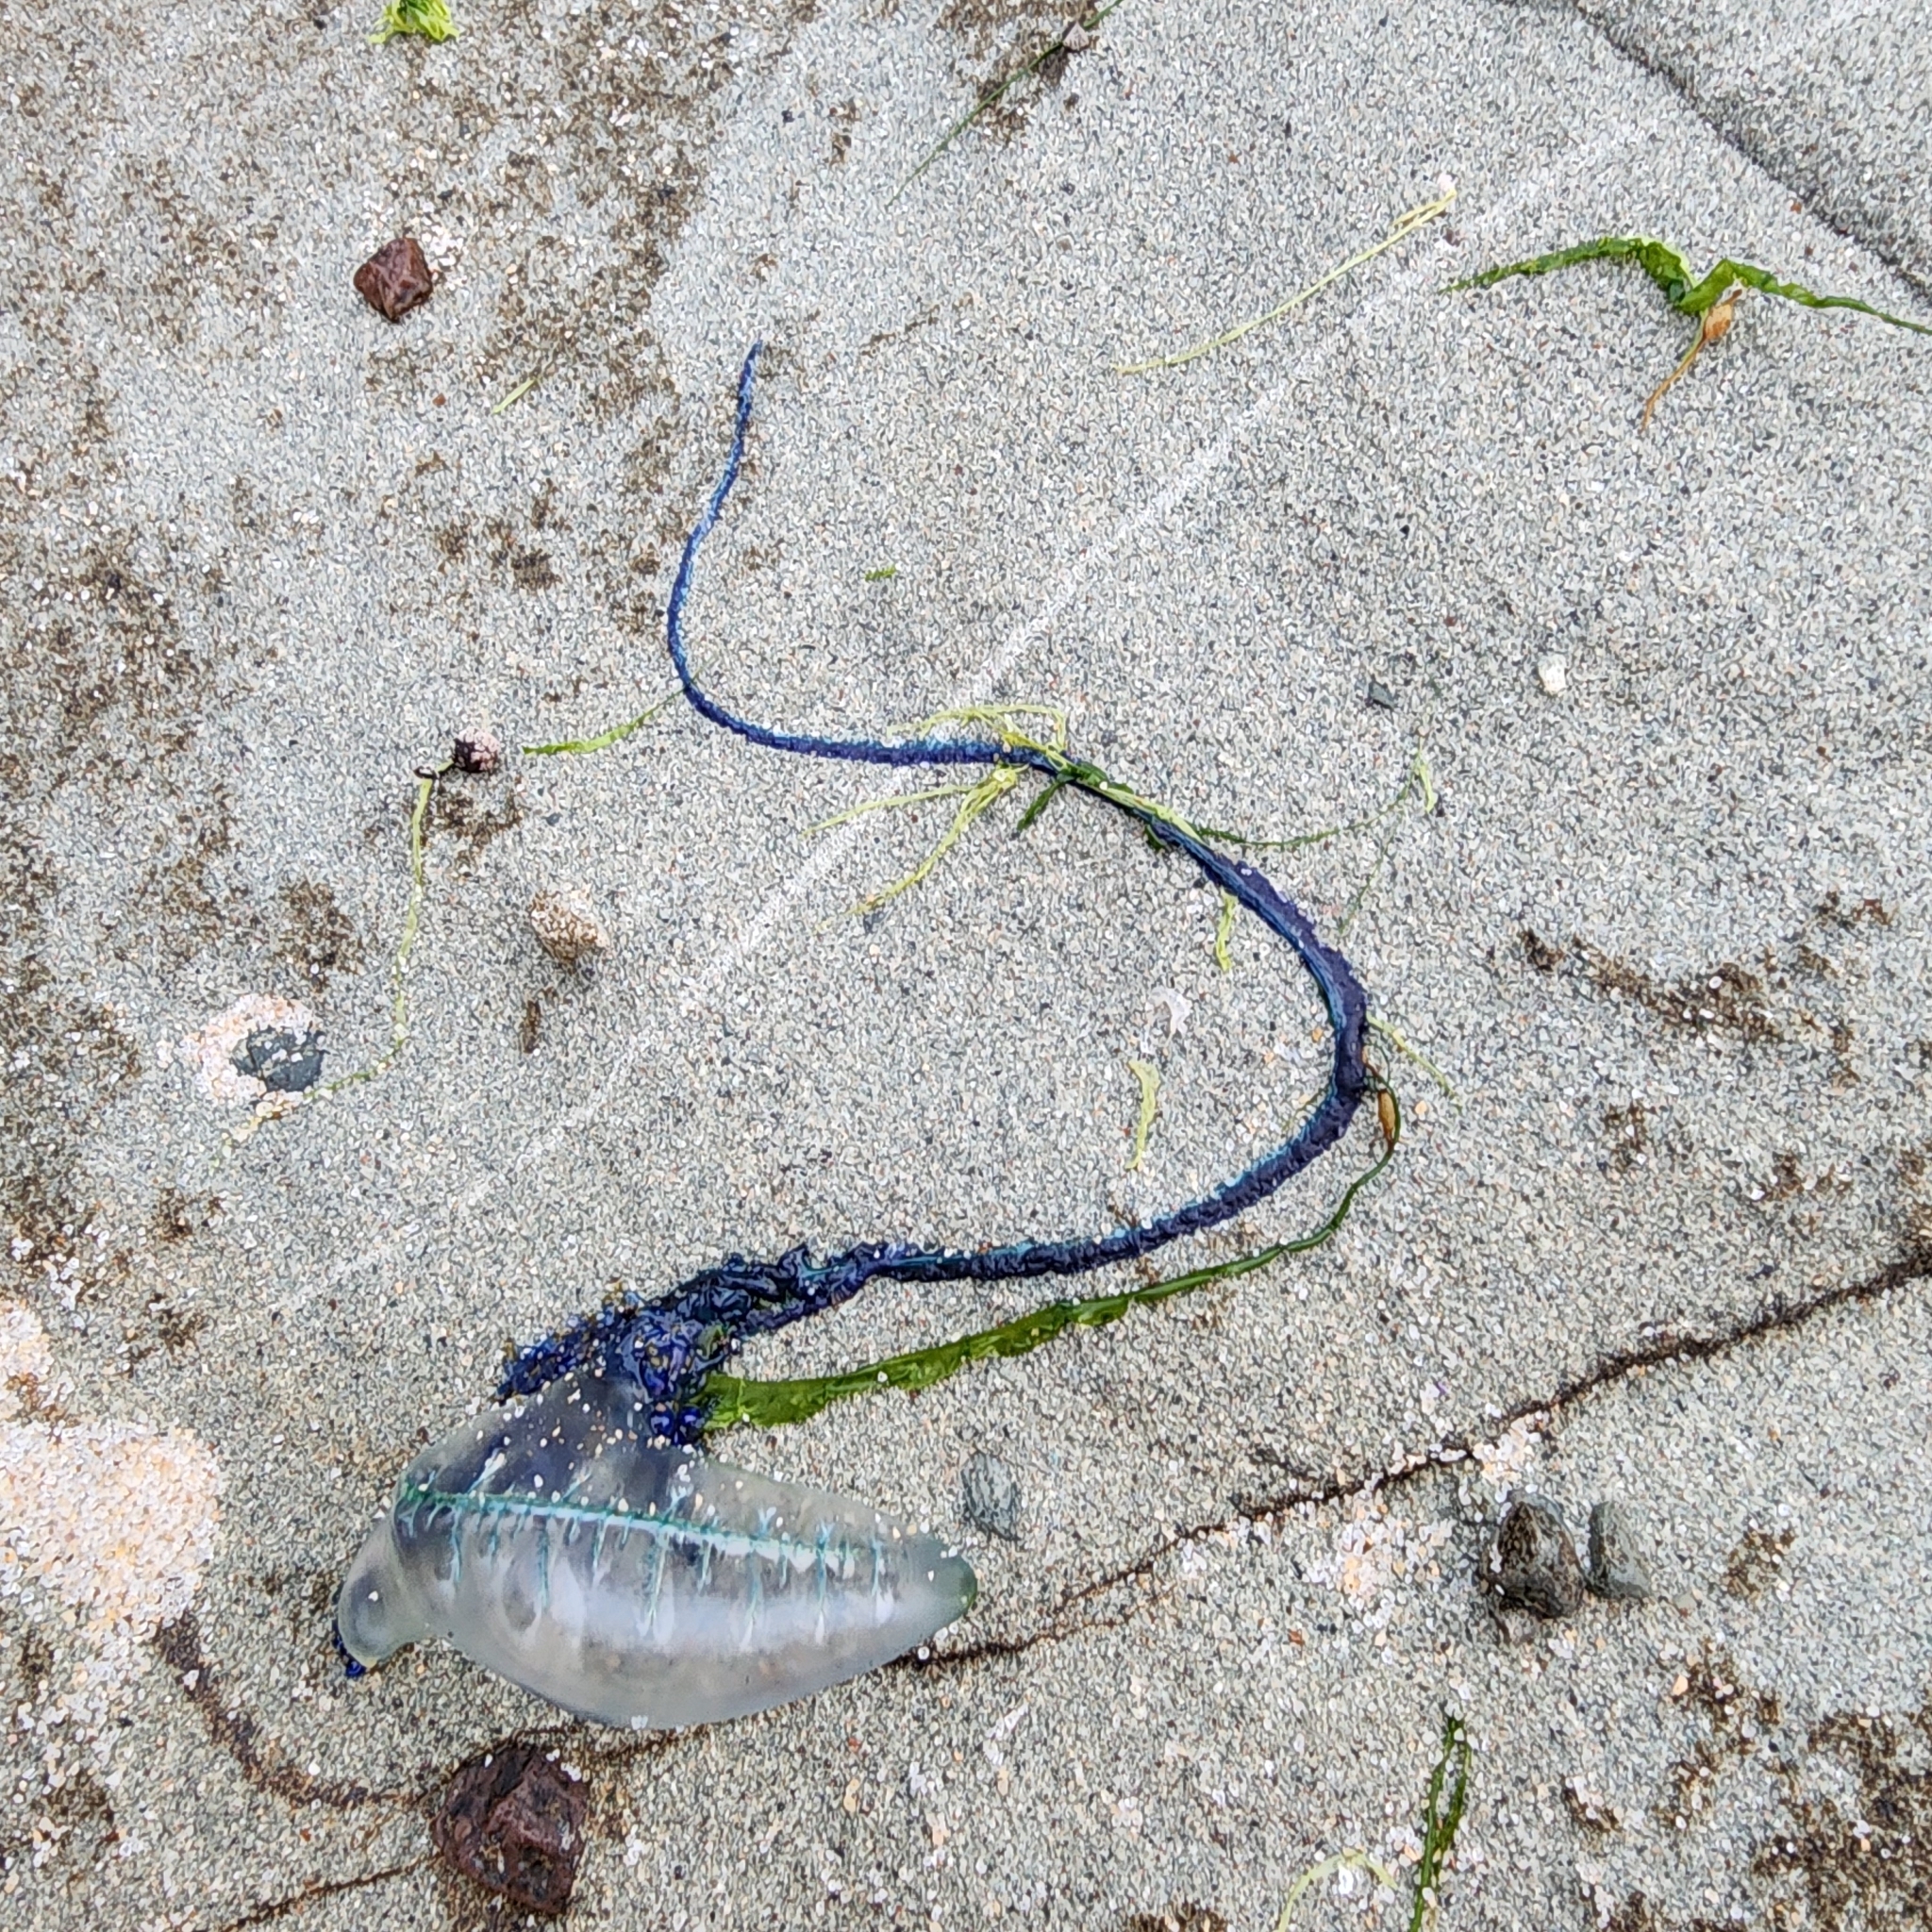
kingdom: Animalia
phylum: Cnidaria
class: Hydrozoa
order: Siphonophorae
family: Physaliidae
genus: Physalia
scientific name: Physalia physalis
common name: Portuguese man-of-war
